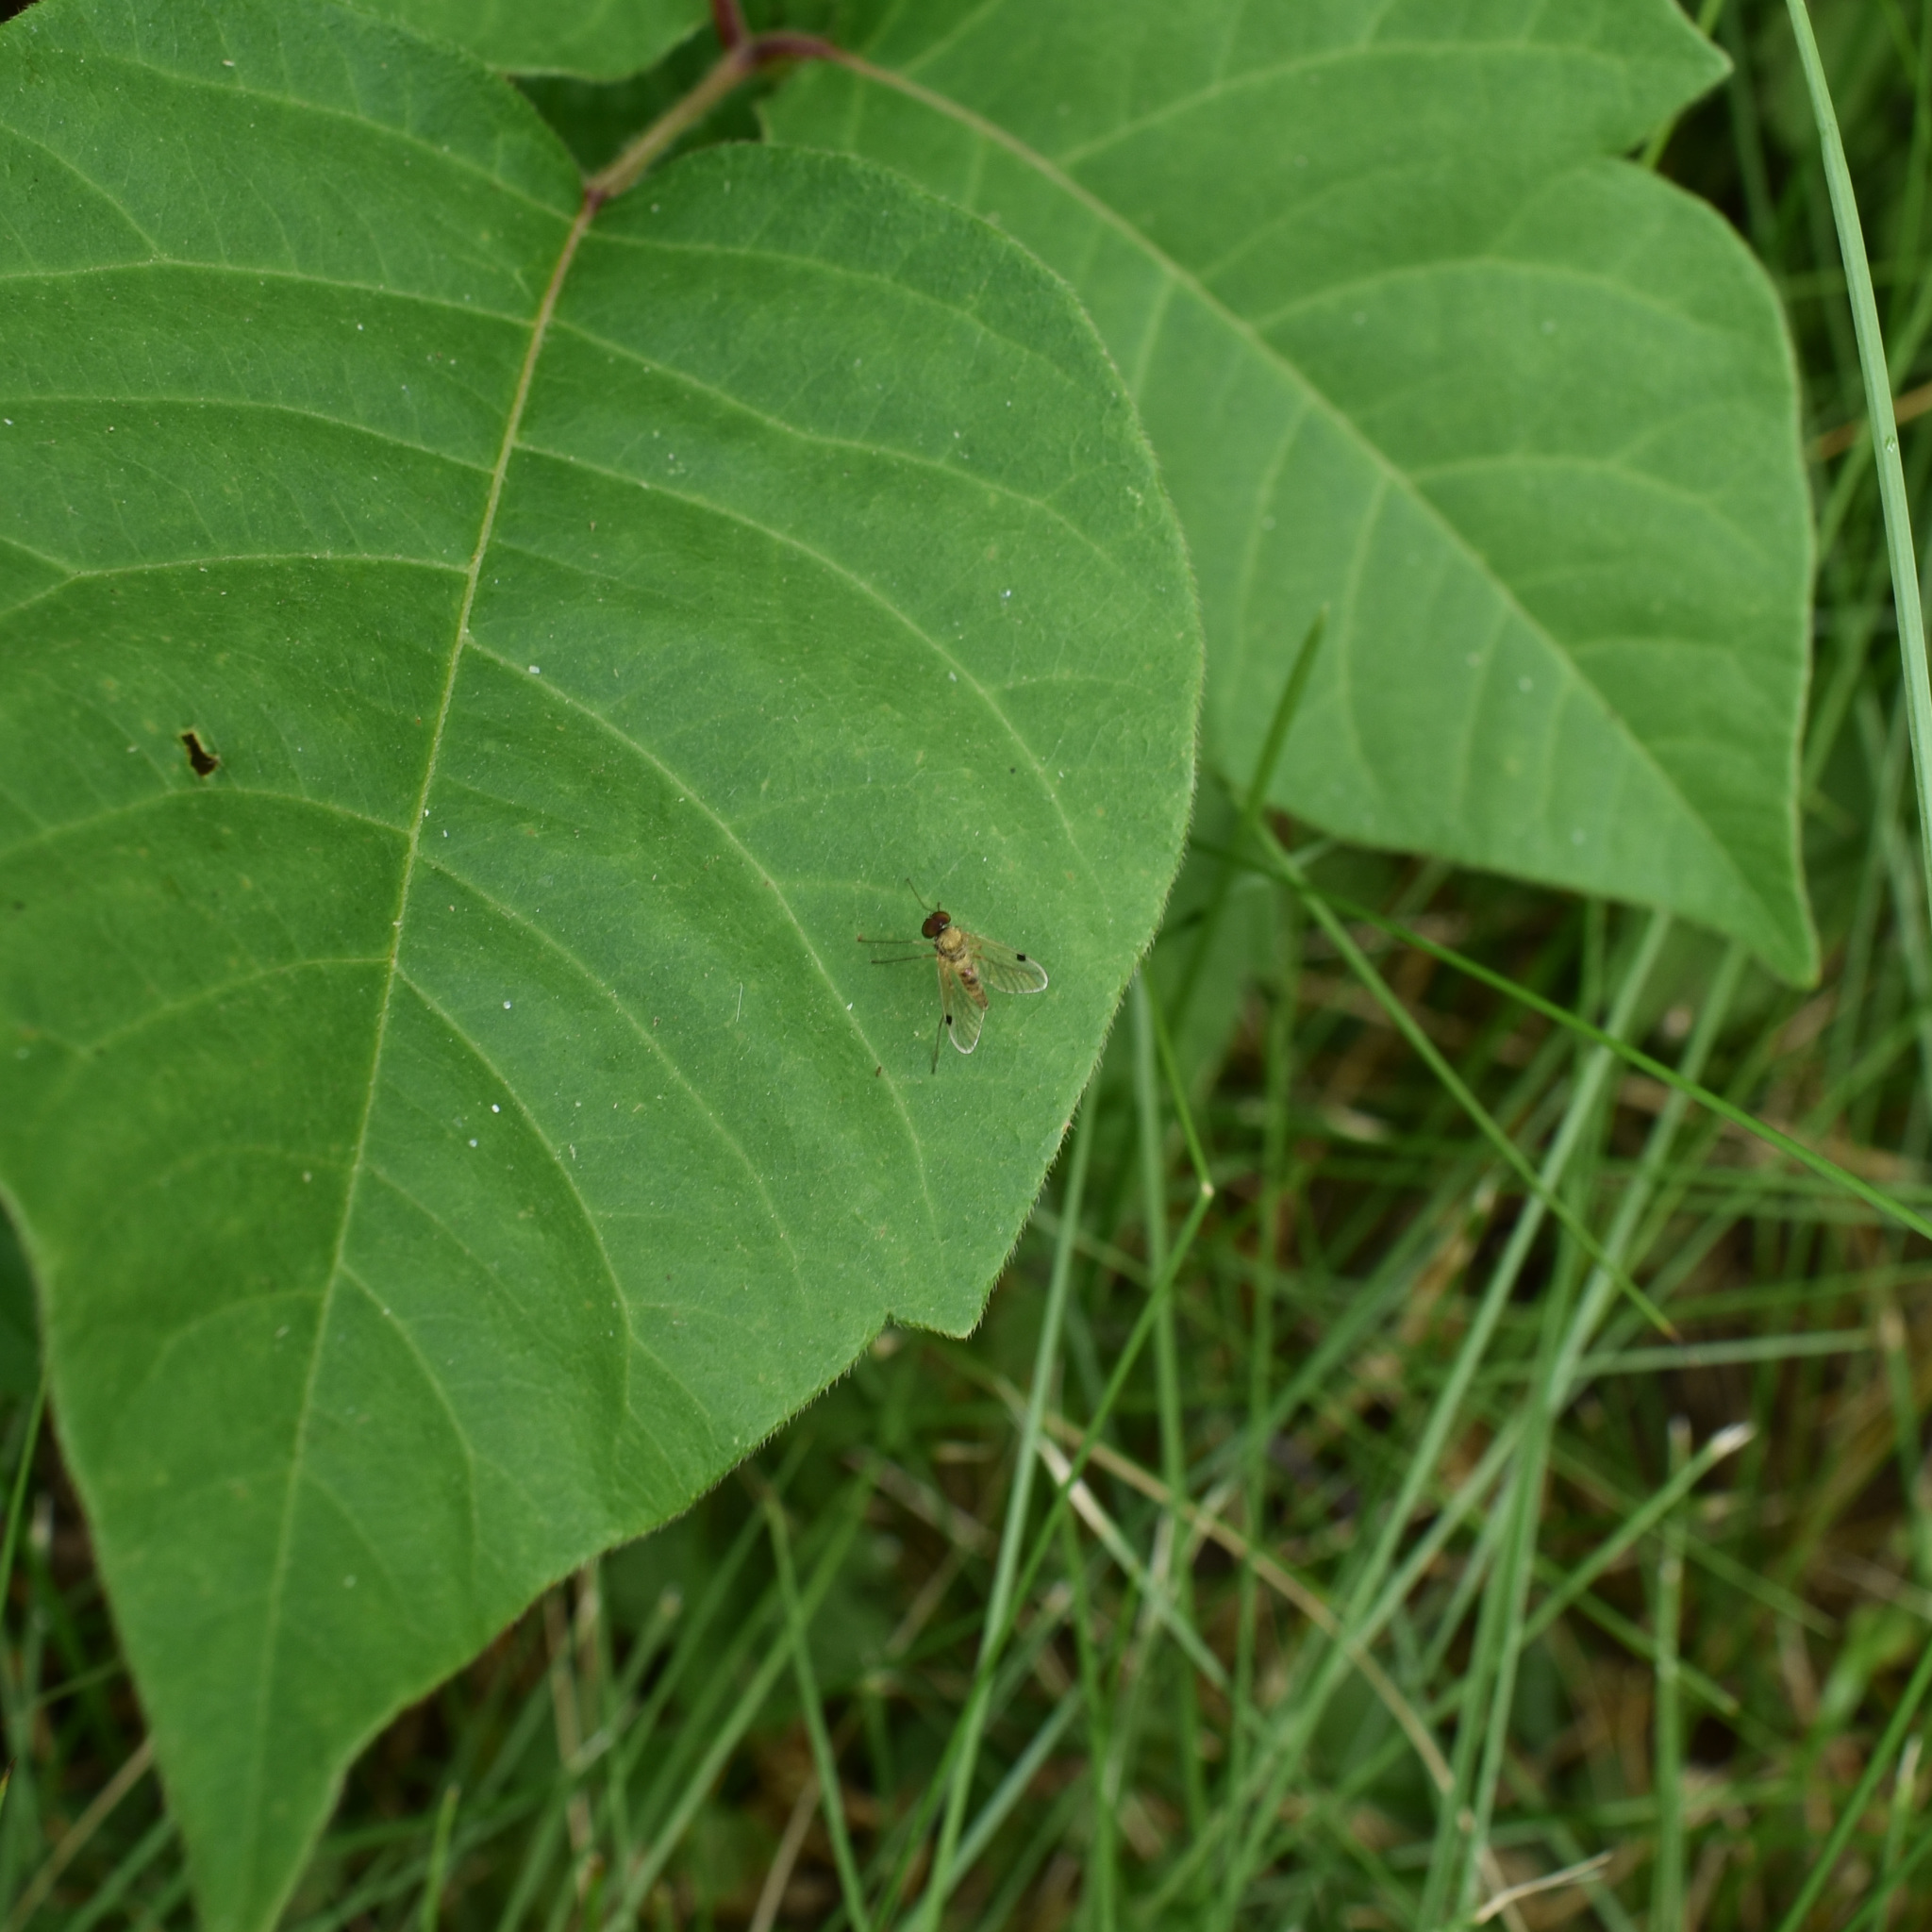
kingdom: Animalia
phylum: Arthropoda
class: Insecta
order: Diptera
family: Rhagionidae
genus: Chrysopilus
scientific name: Chrysopilus modestus
